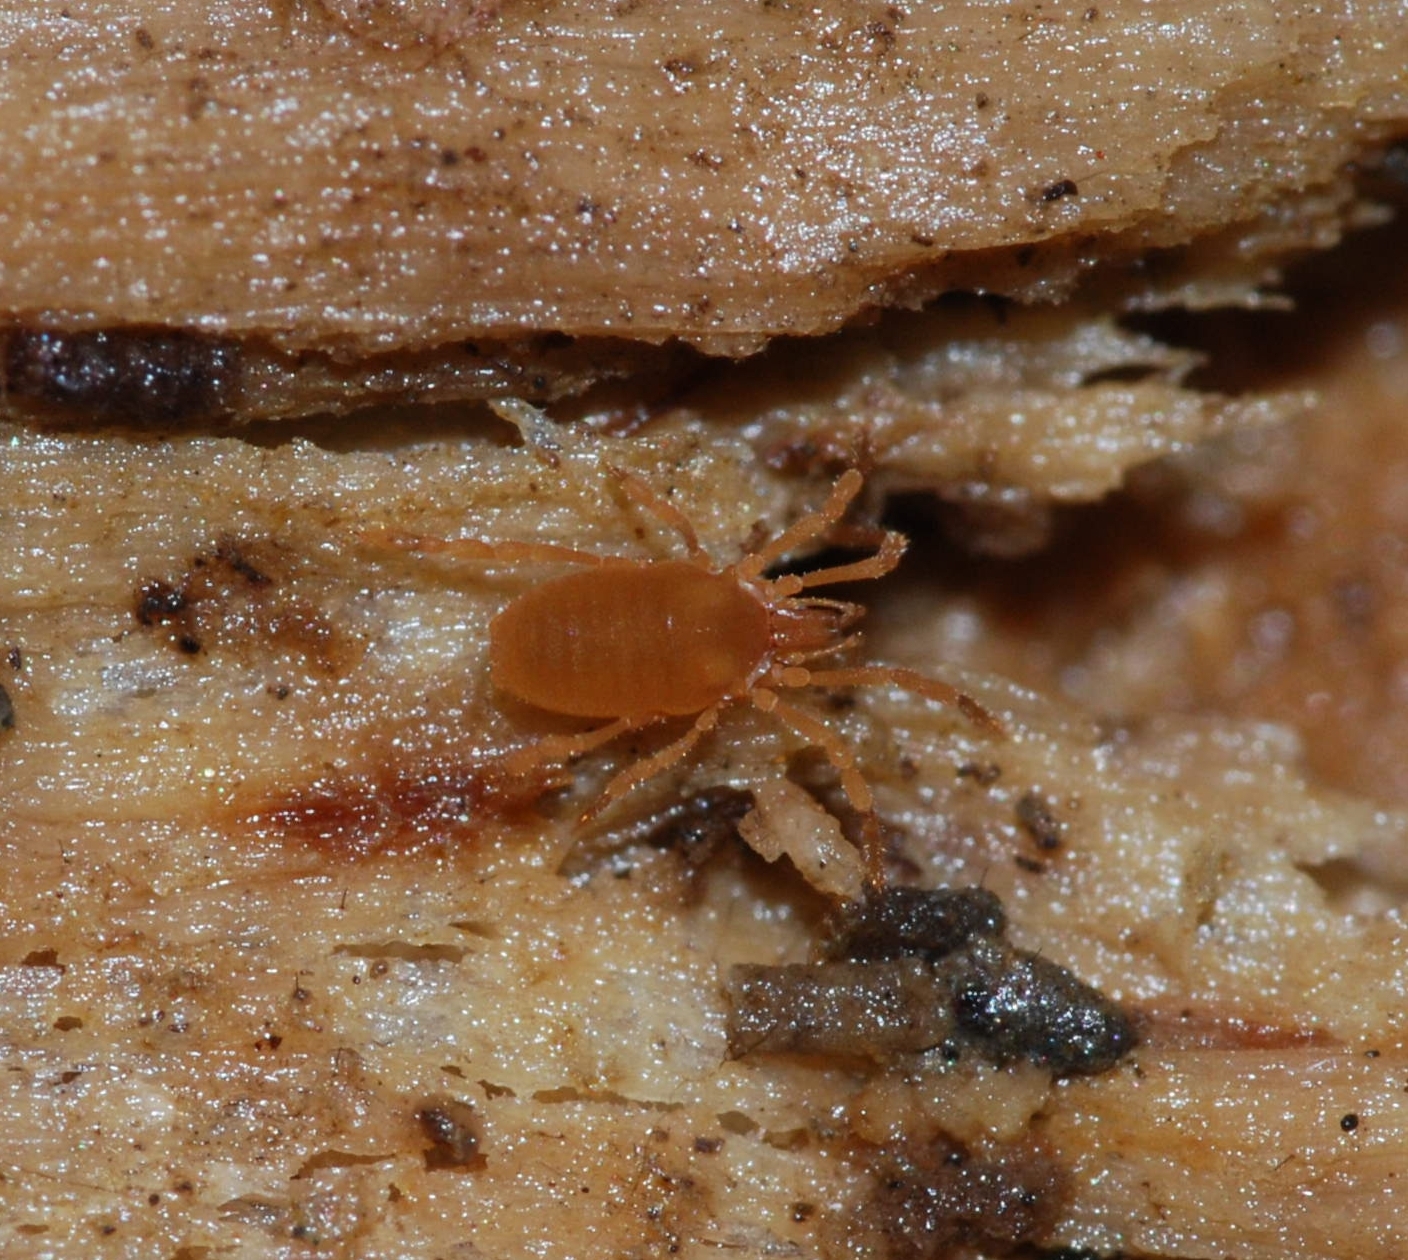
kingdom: Animalia
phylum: Arthropoda
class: Arachnida
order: Opiliones
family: Sironidae
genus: Siro
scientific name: Siro rubens
